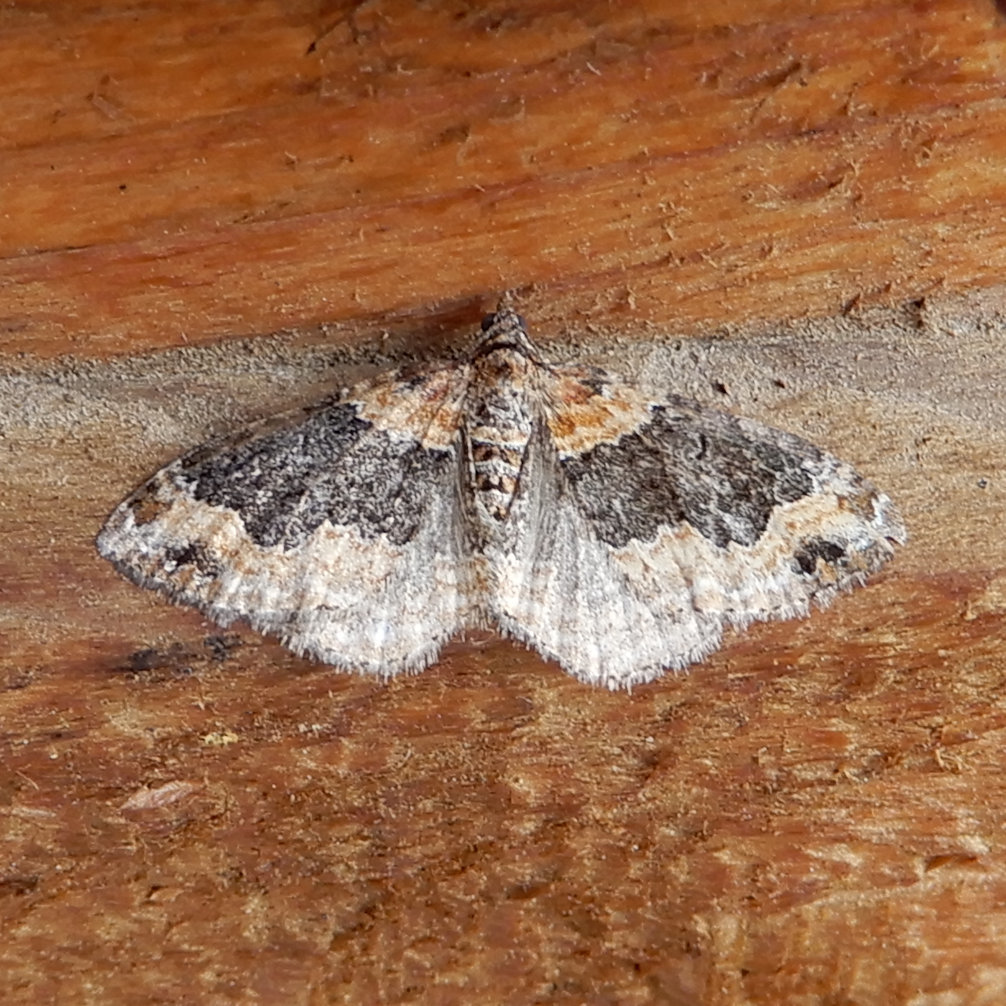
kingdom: Animalia
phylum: Arthropoda
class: Insecta
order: Lepidoptera
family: Geometridae
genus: Xanthorhoe
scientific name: Xanthorhoe ferrugata
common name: Dark-barred twin-spot carpet
